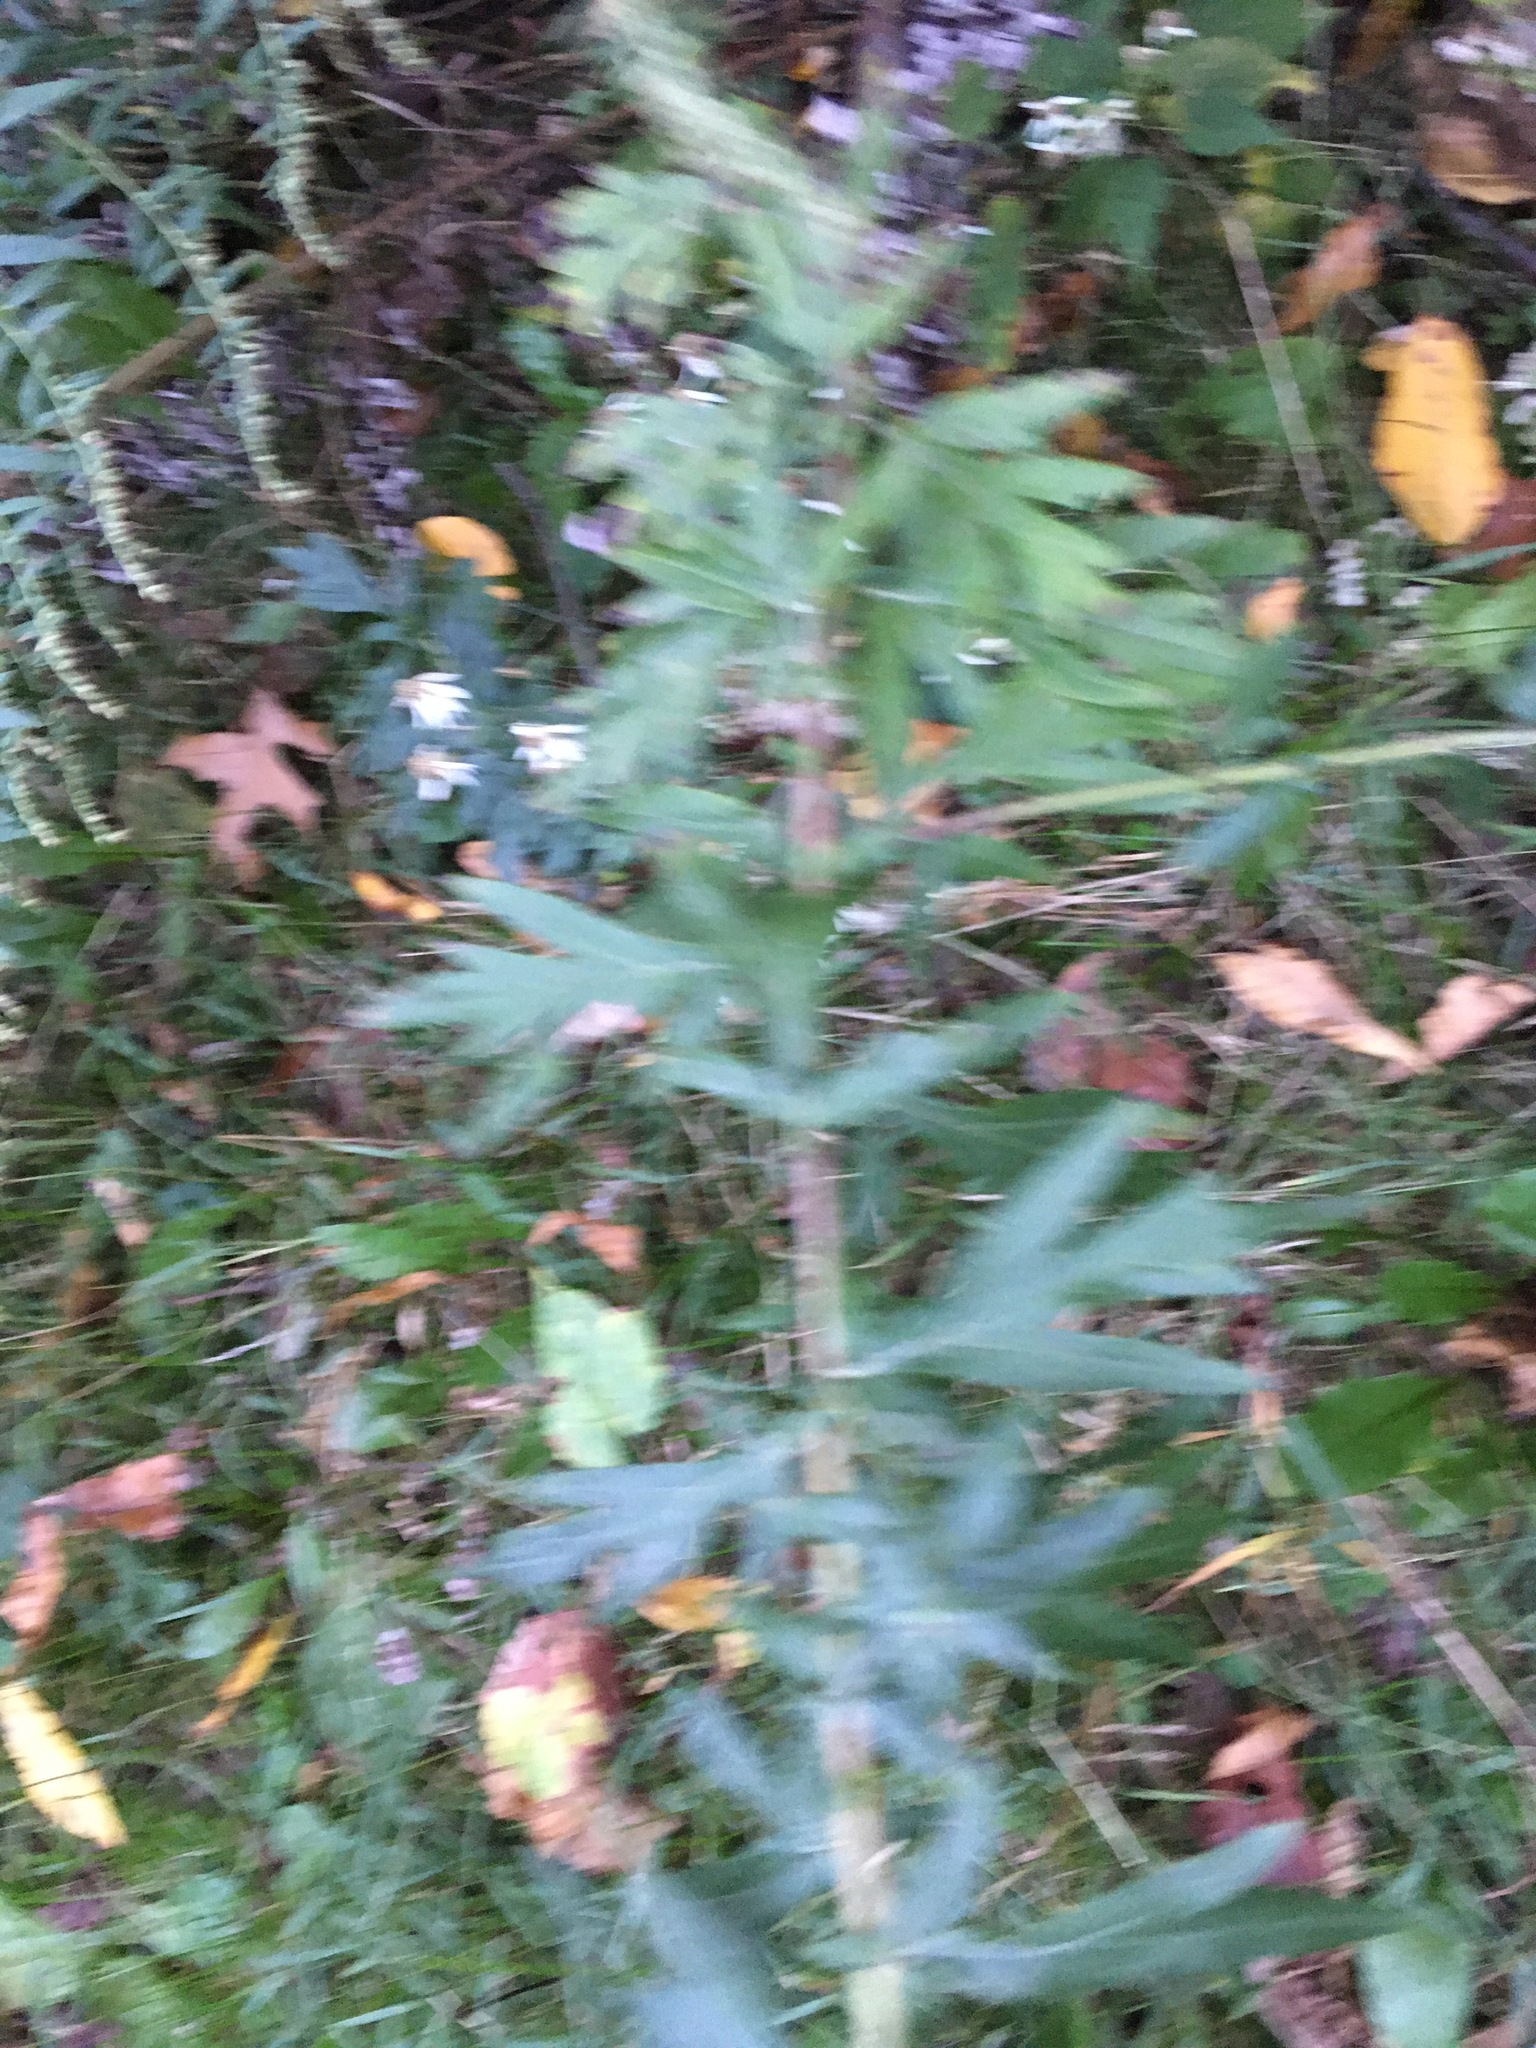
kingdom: Plantae
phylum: Tracheophyta
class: Magnoliopsida
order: Asterales
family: Asteraceae
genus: Artemisia
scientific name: Artemisia vulgaris
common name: Mugwort
